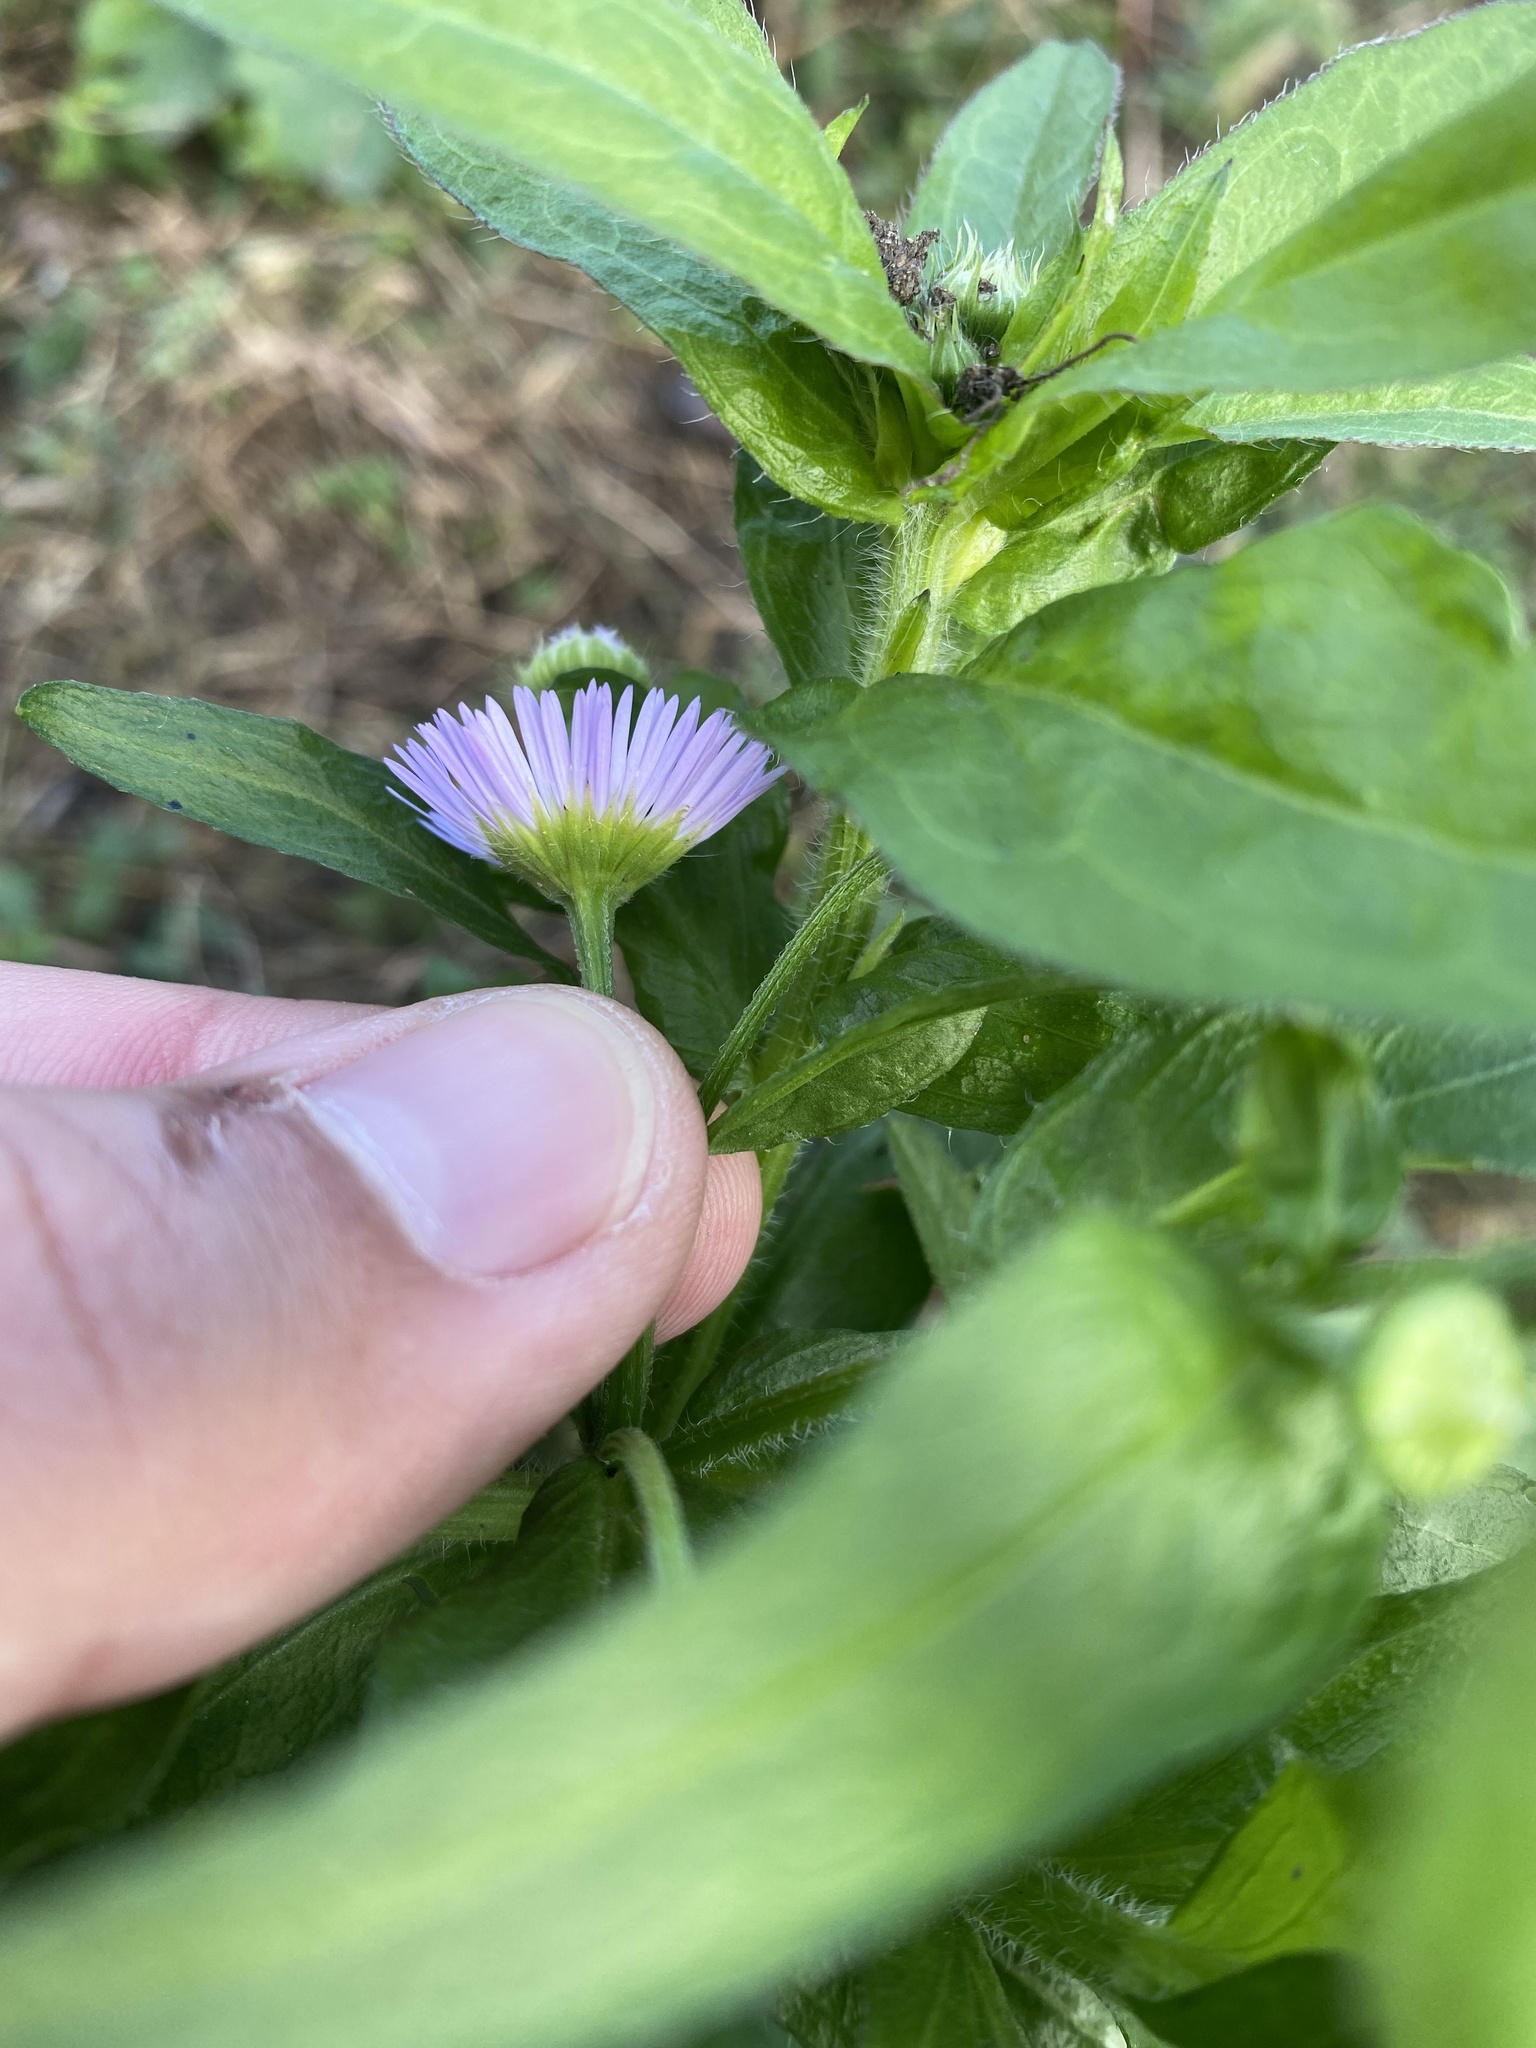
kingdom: Plantae
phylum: Tracheophyta
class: Magnoliopsida
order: Asterales
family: Asteraceae
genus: Erigeron
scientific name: Erigeron annuus
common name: Tall fleabane
